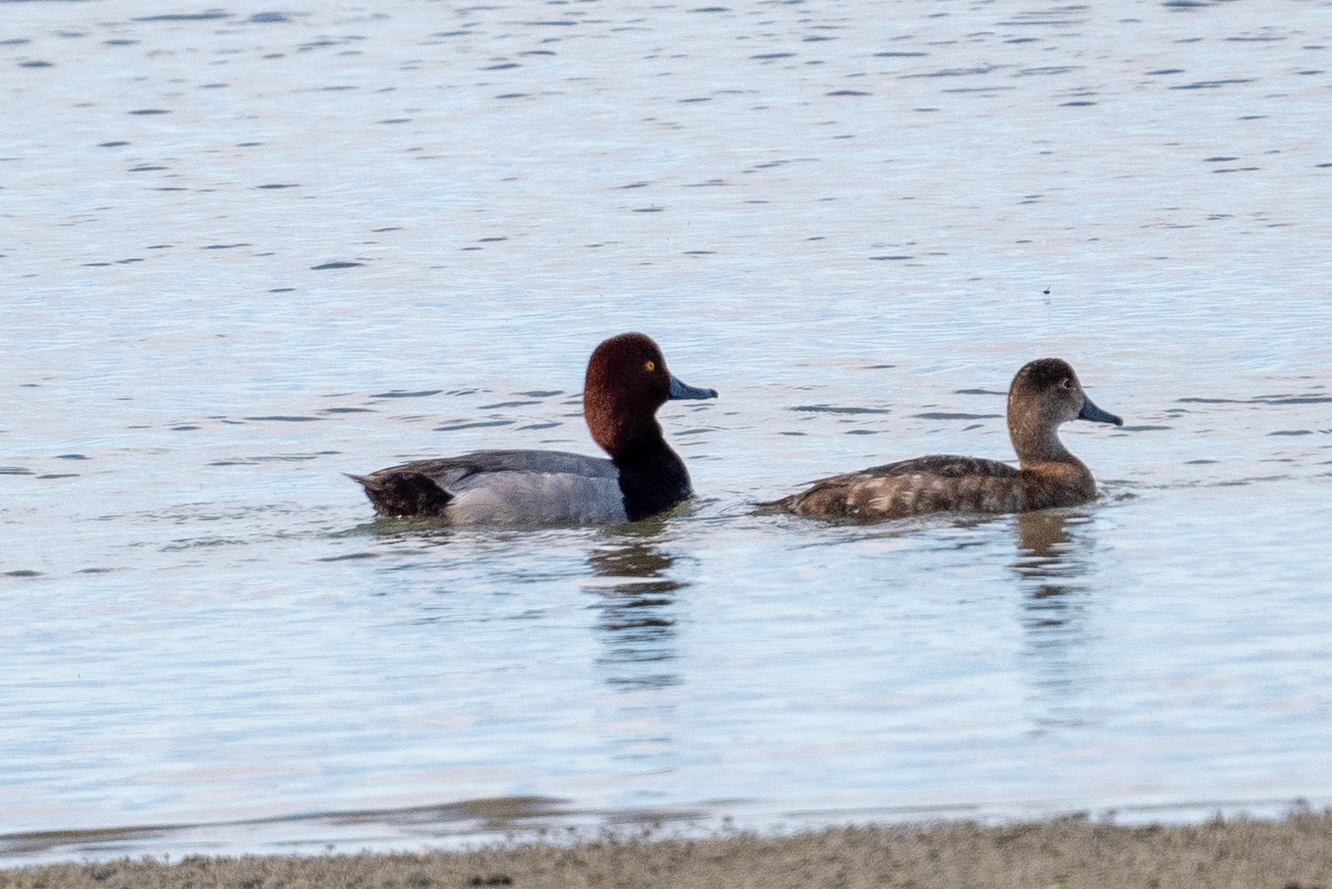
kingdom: Animalia
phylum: Chordata
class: Aves
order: Anseriformes
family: Anatidae
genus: Aythya
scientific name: Aythya americana
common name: Redhead
